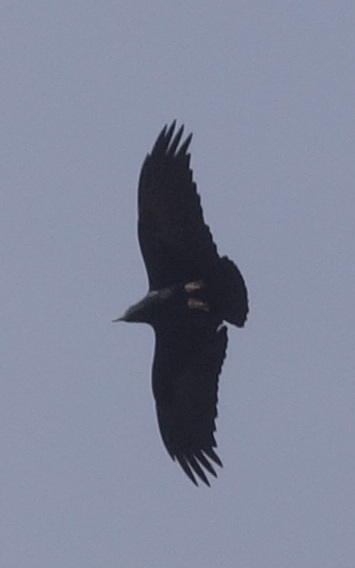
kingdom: Animalia
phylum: Chordata
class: Aves
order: Passeriformes
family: Corvidae
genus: Corvus
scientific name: Corvus rhipidurus
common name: Fan-tailed raven
